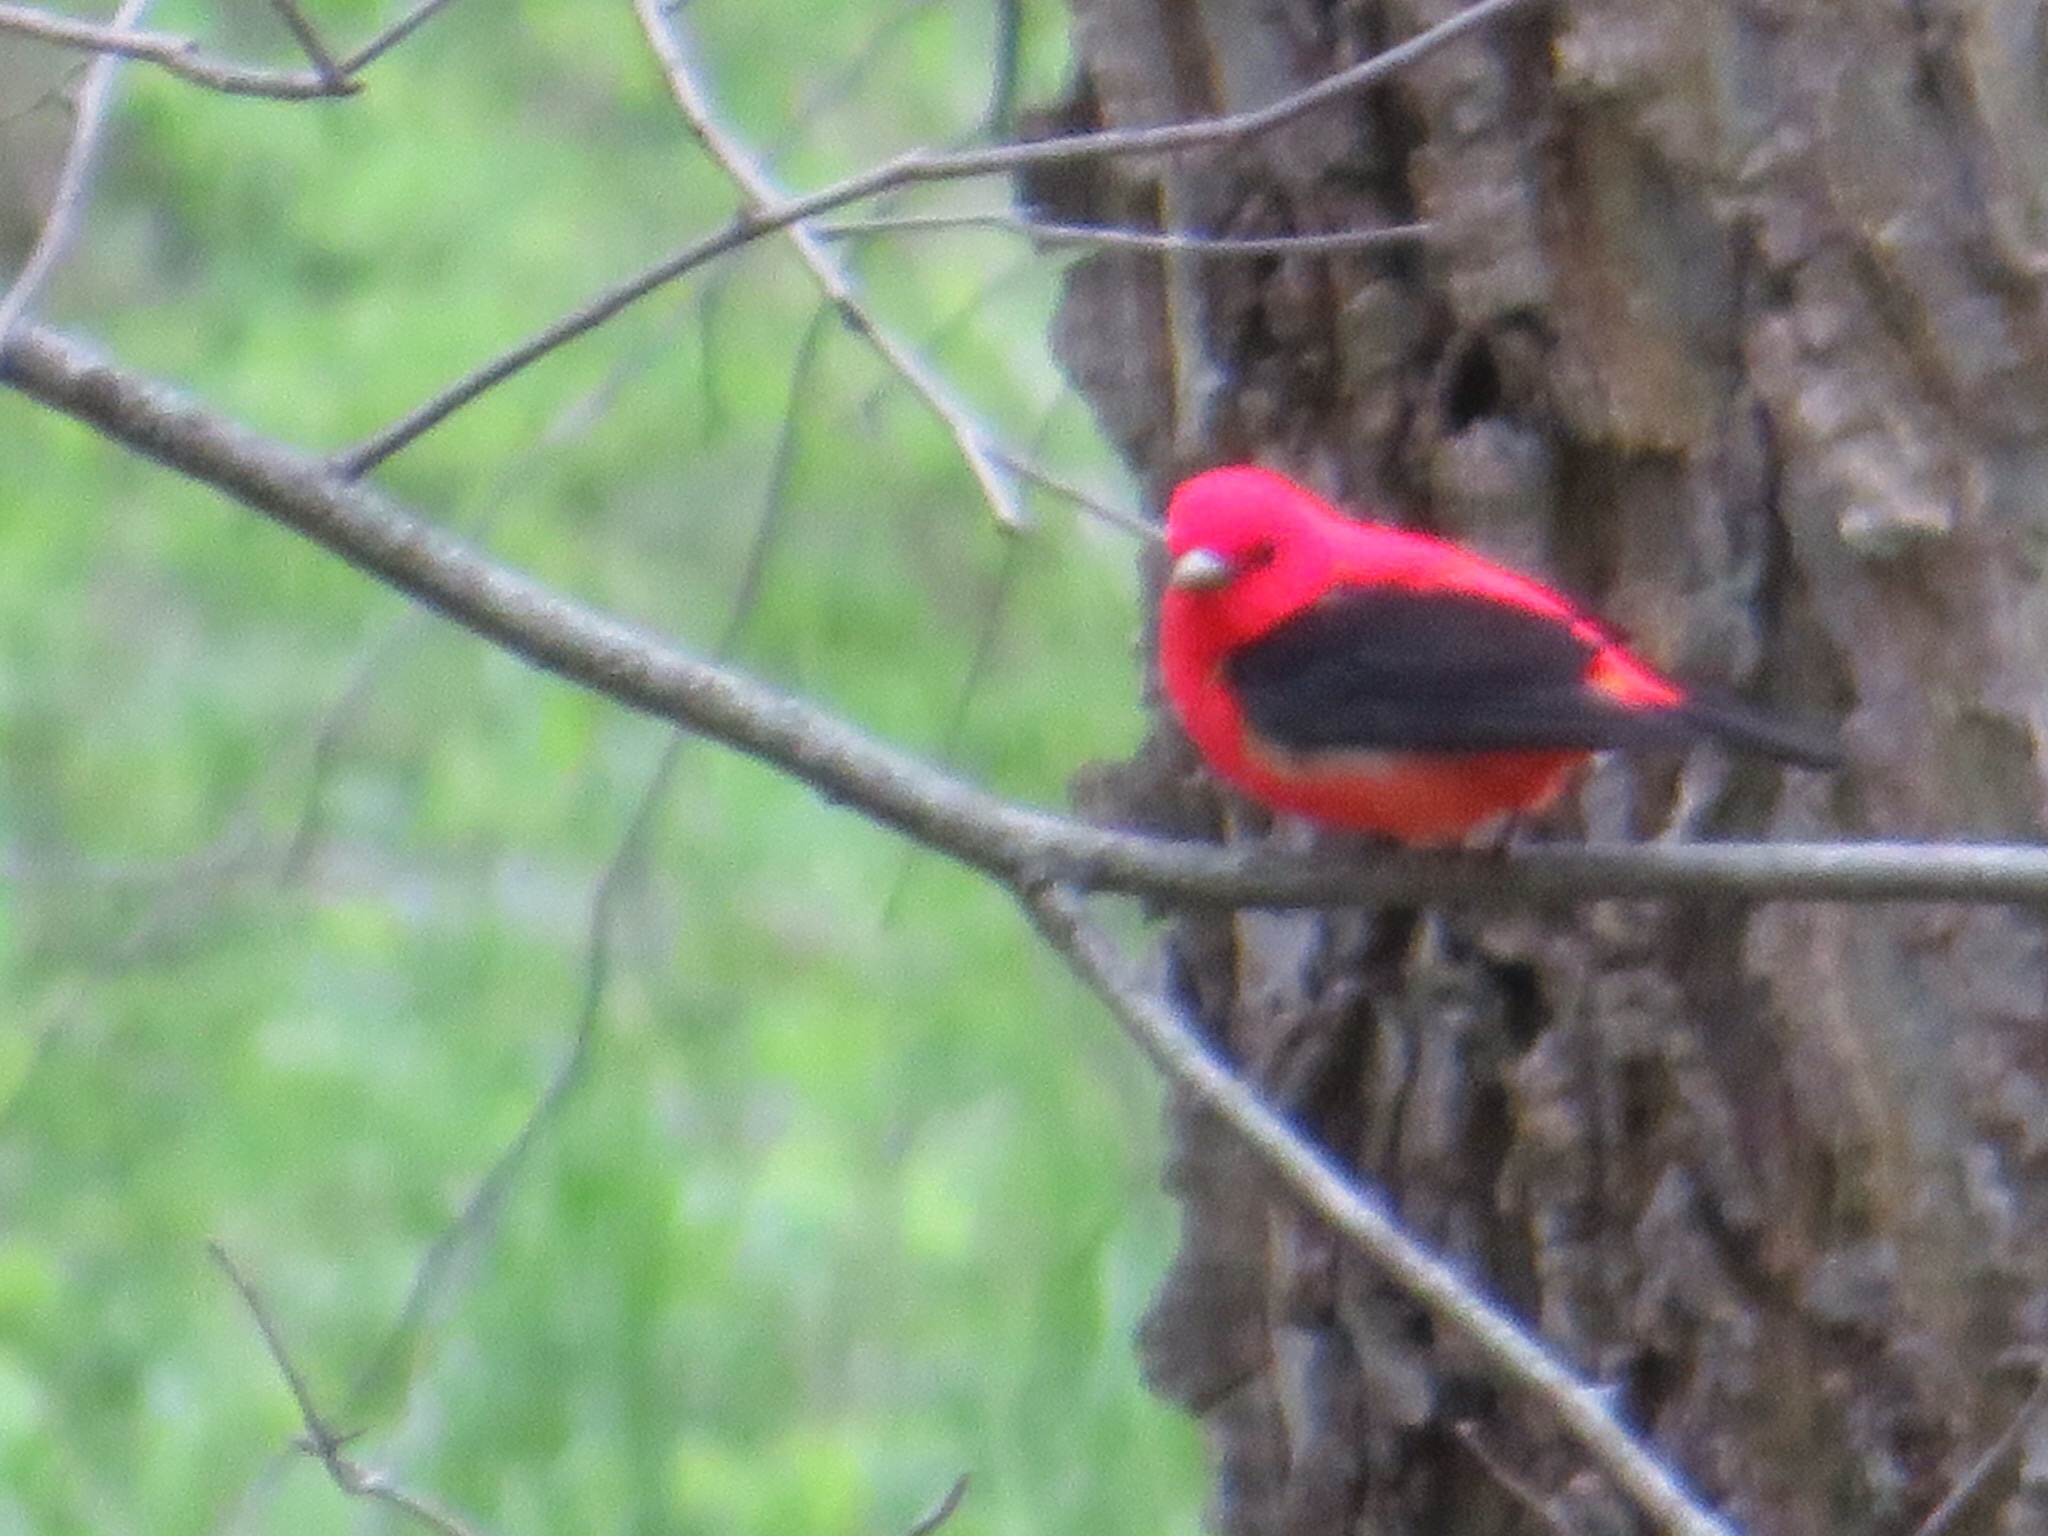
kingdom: Animalia
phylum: Chordata
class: Aves
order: Passeriformes
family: Cardinalidae
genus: Piranga
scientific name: Piranga olivacea
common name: Scarlet tanager
